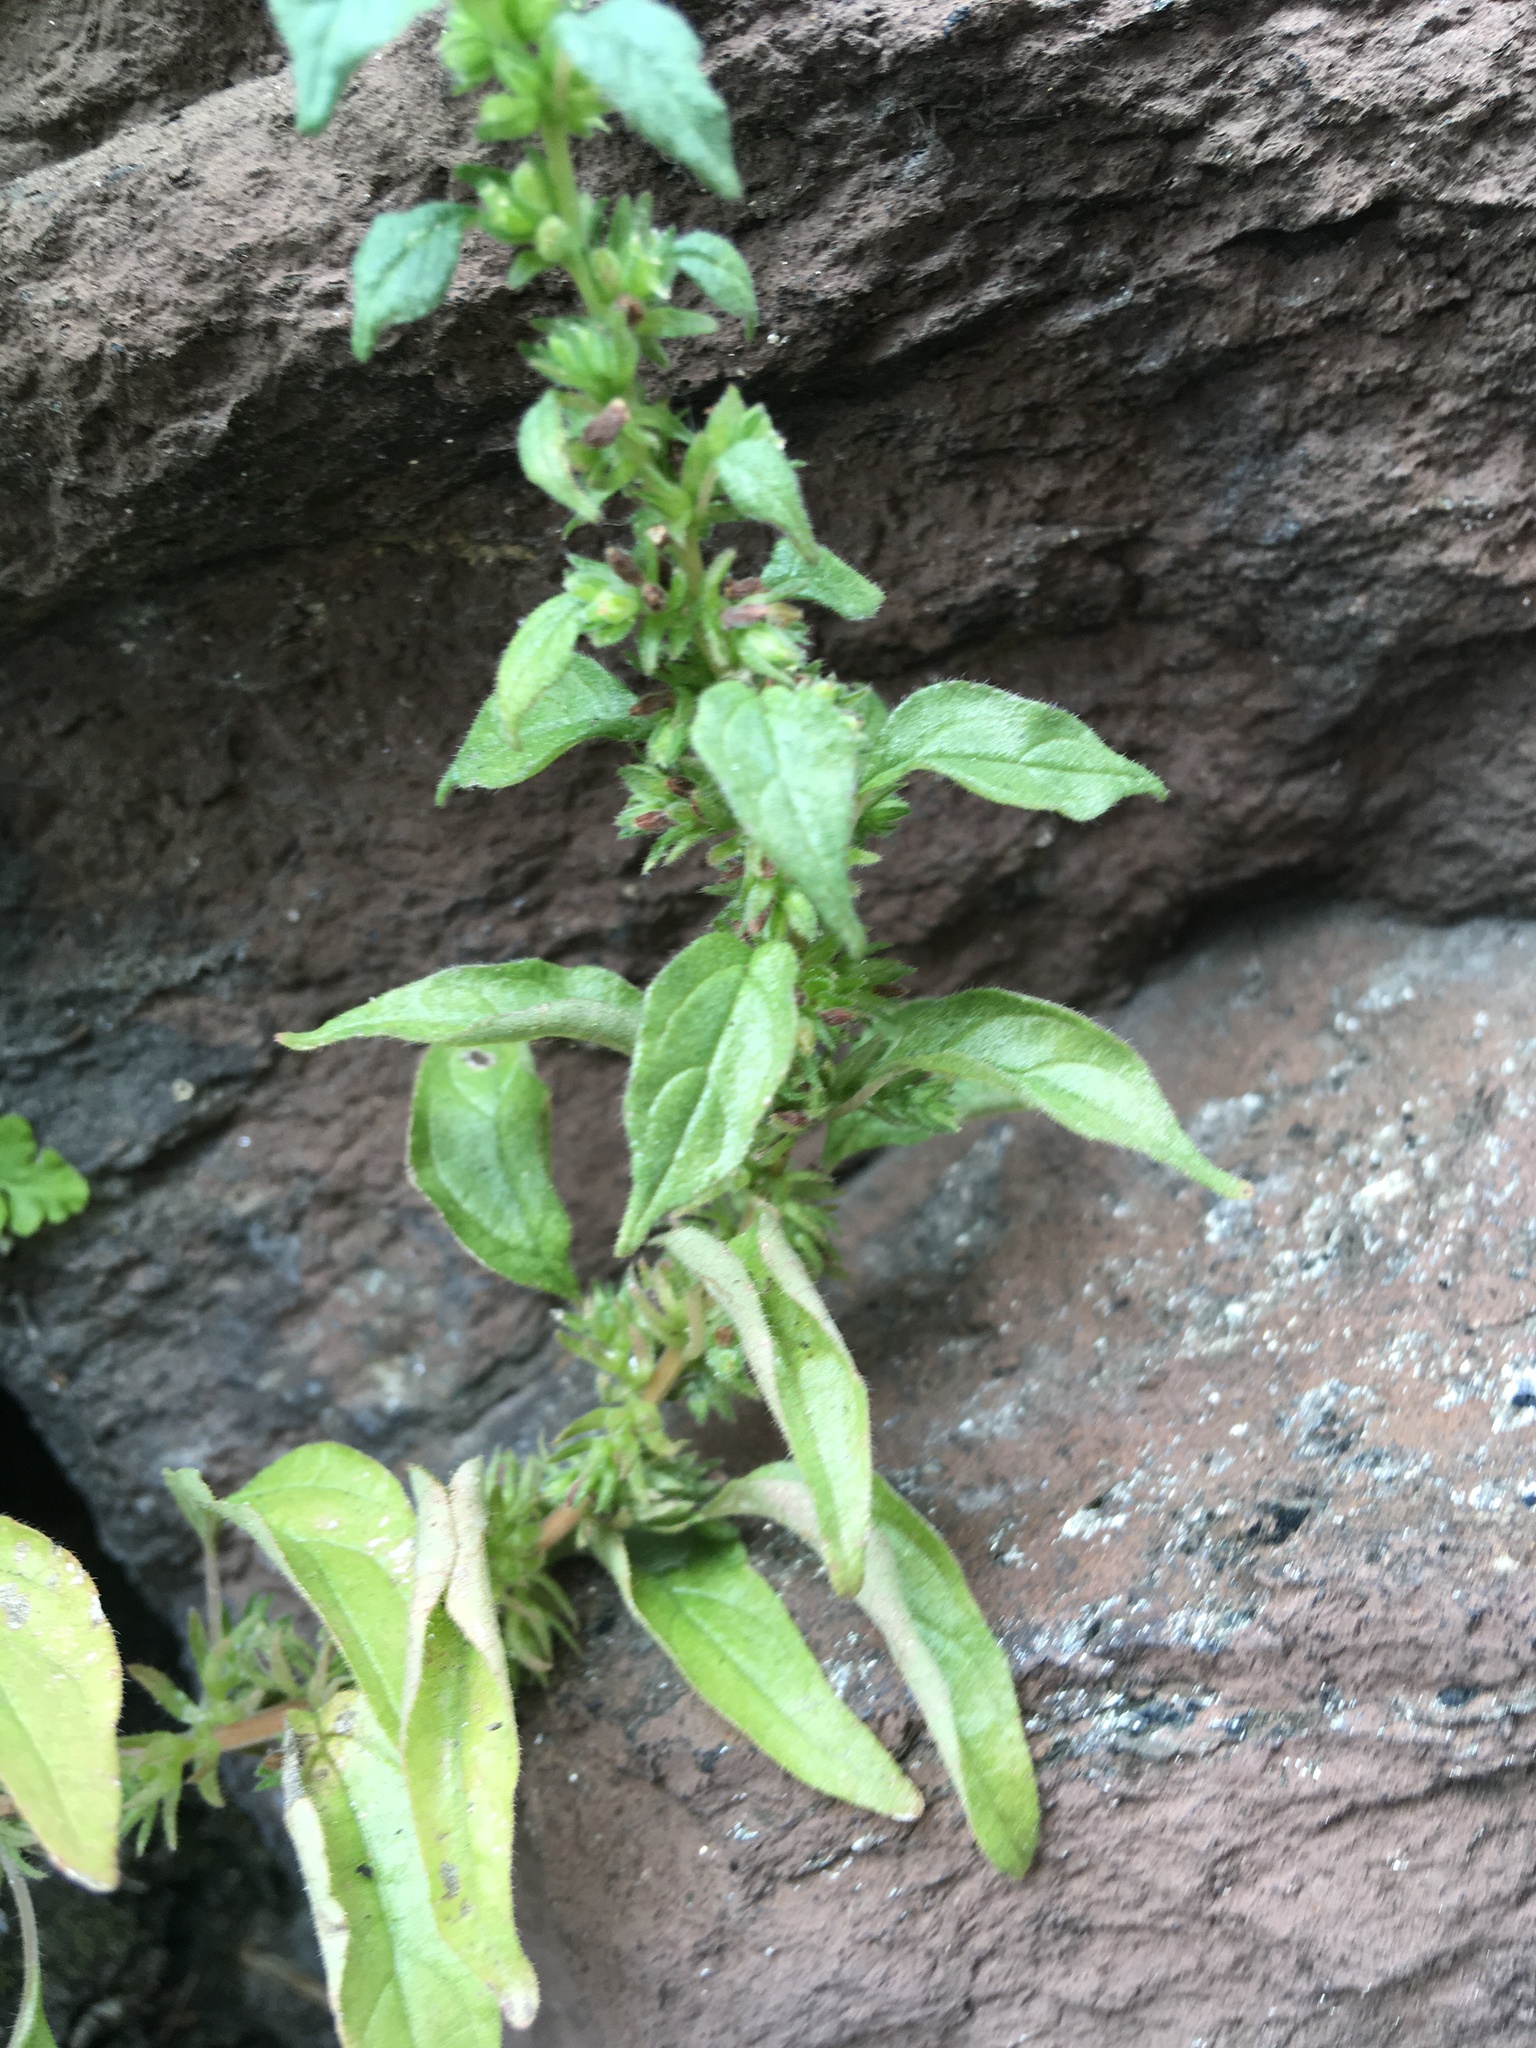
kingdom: Plantae
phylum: Tracheophyta
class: Magnoliopsida
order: Rosales
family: Urticaceae
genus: Parietaria
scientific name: Parietaria pensylvanica
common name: Pennsylvania pellitory
